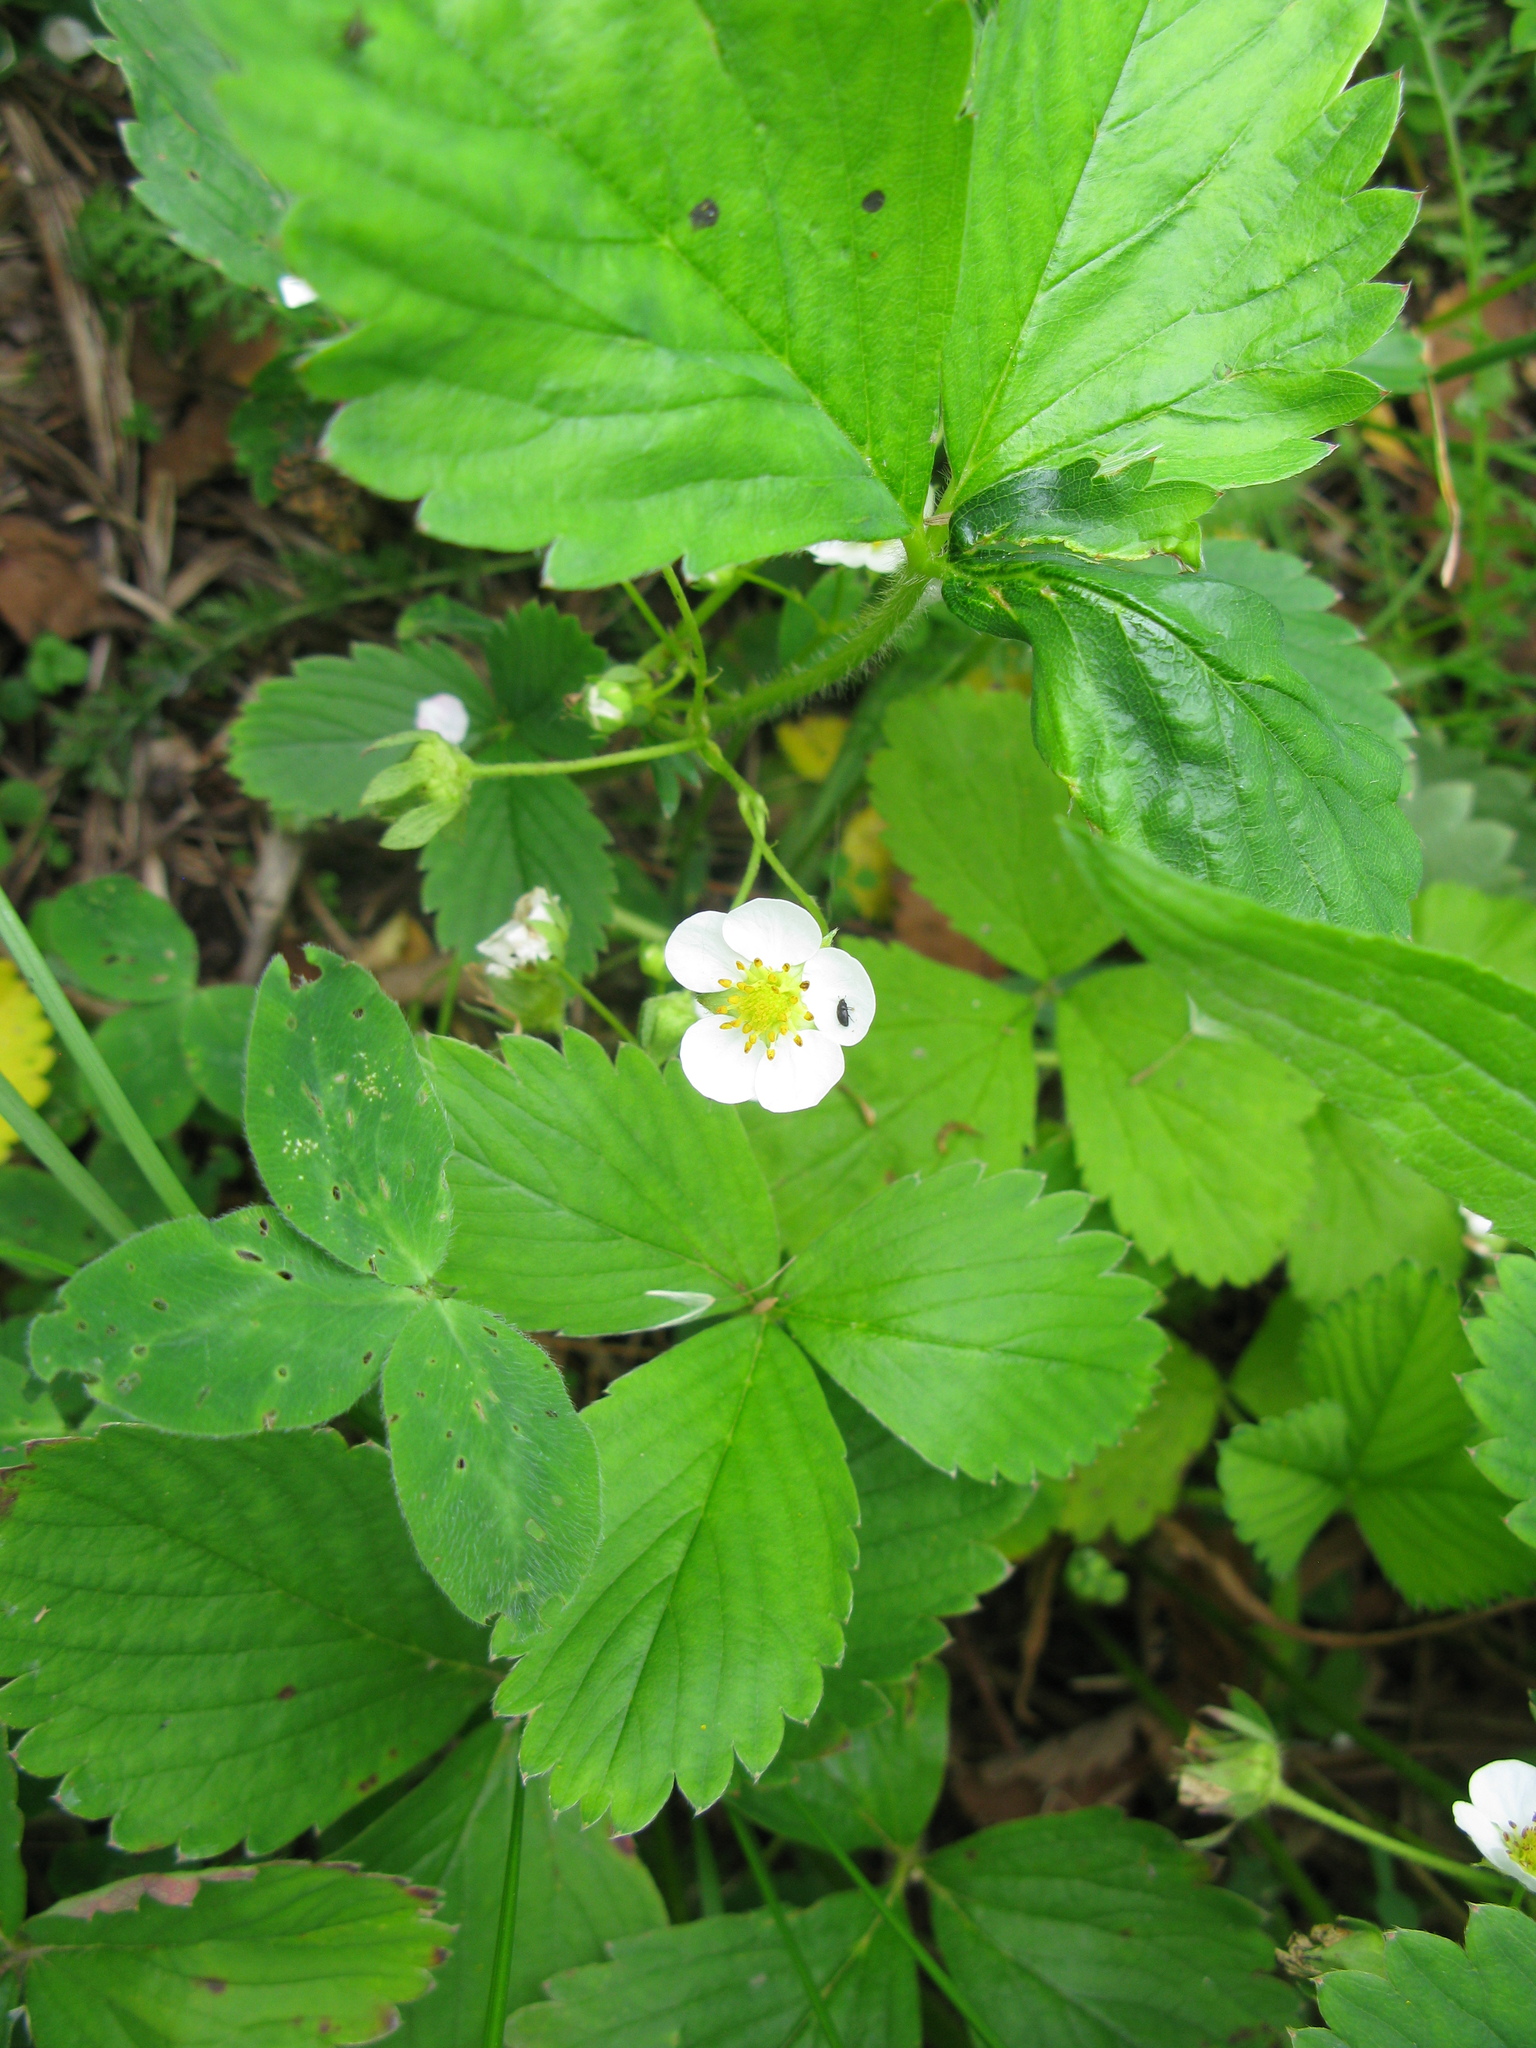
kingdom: Plantae
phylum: Tracheophyta
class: Magnoliopsida
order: Rosales
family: Rosaceae
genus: Fragaria
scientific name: Fragaria viridis
